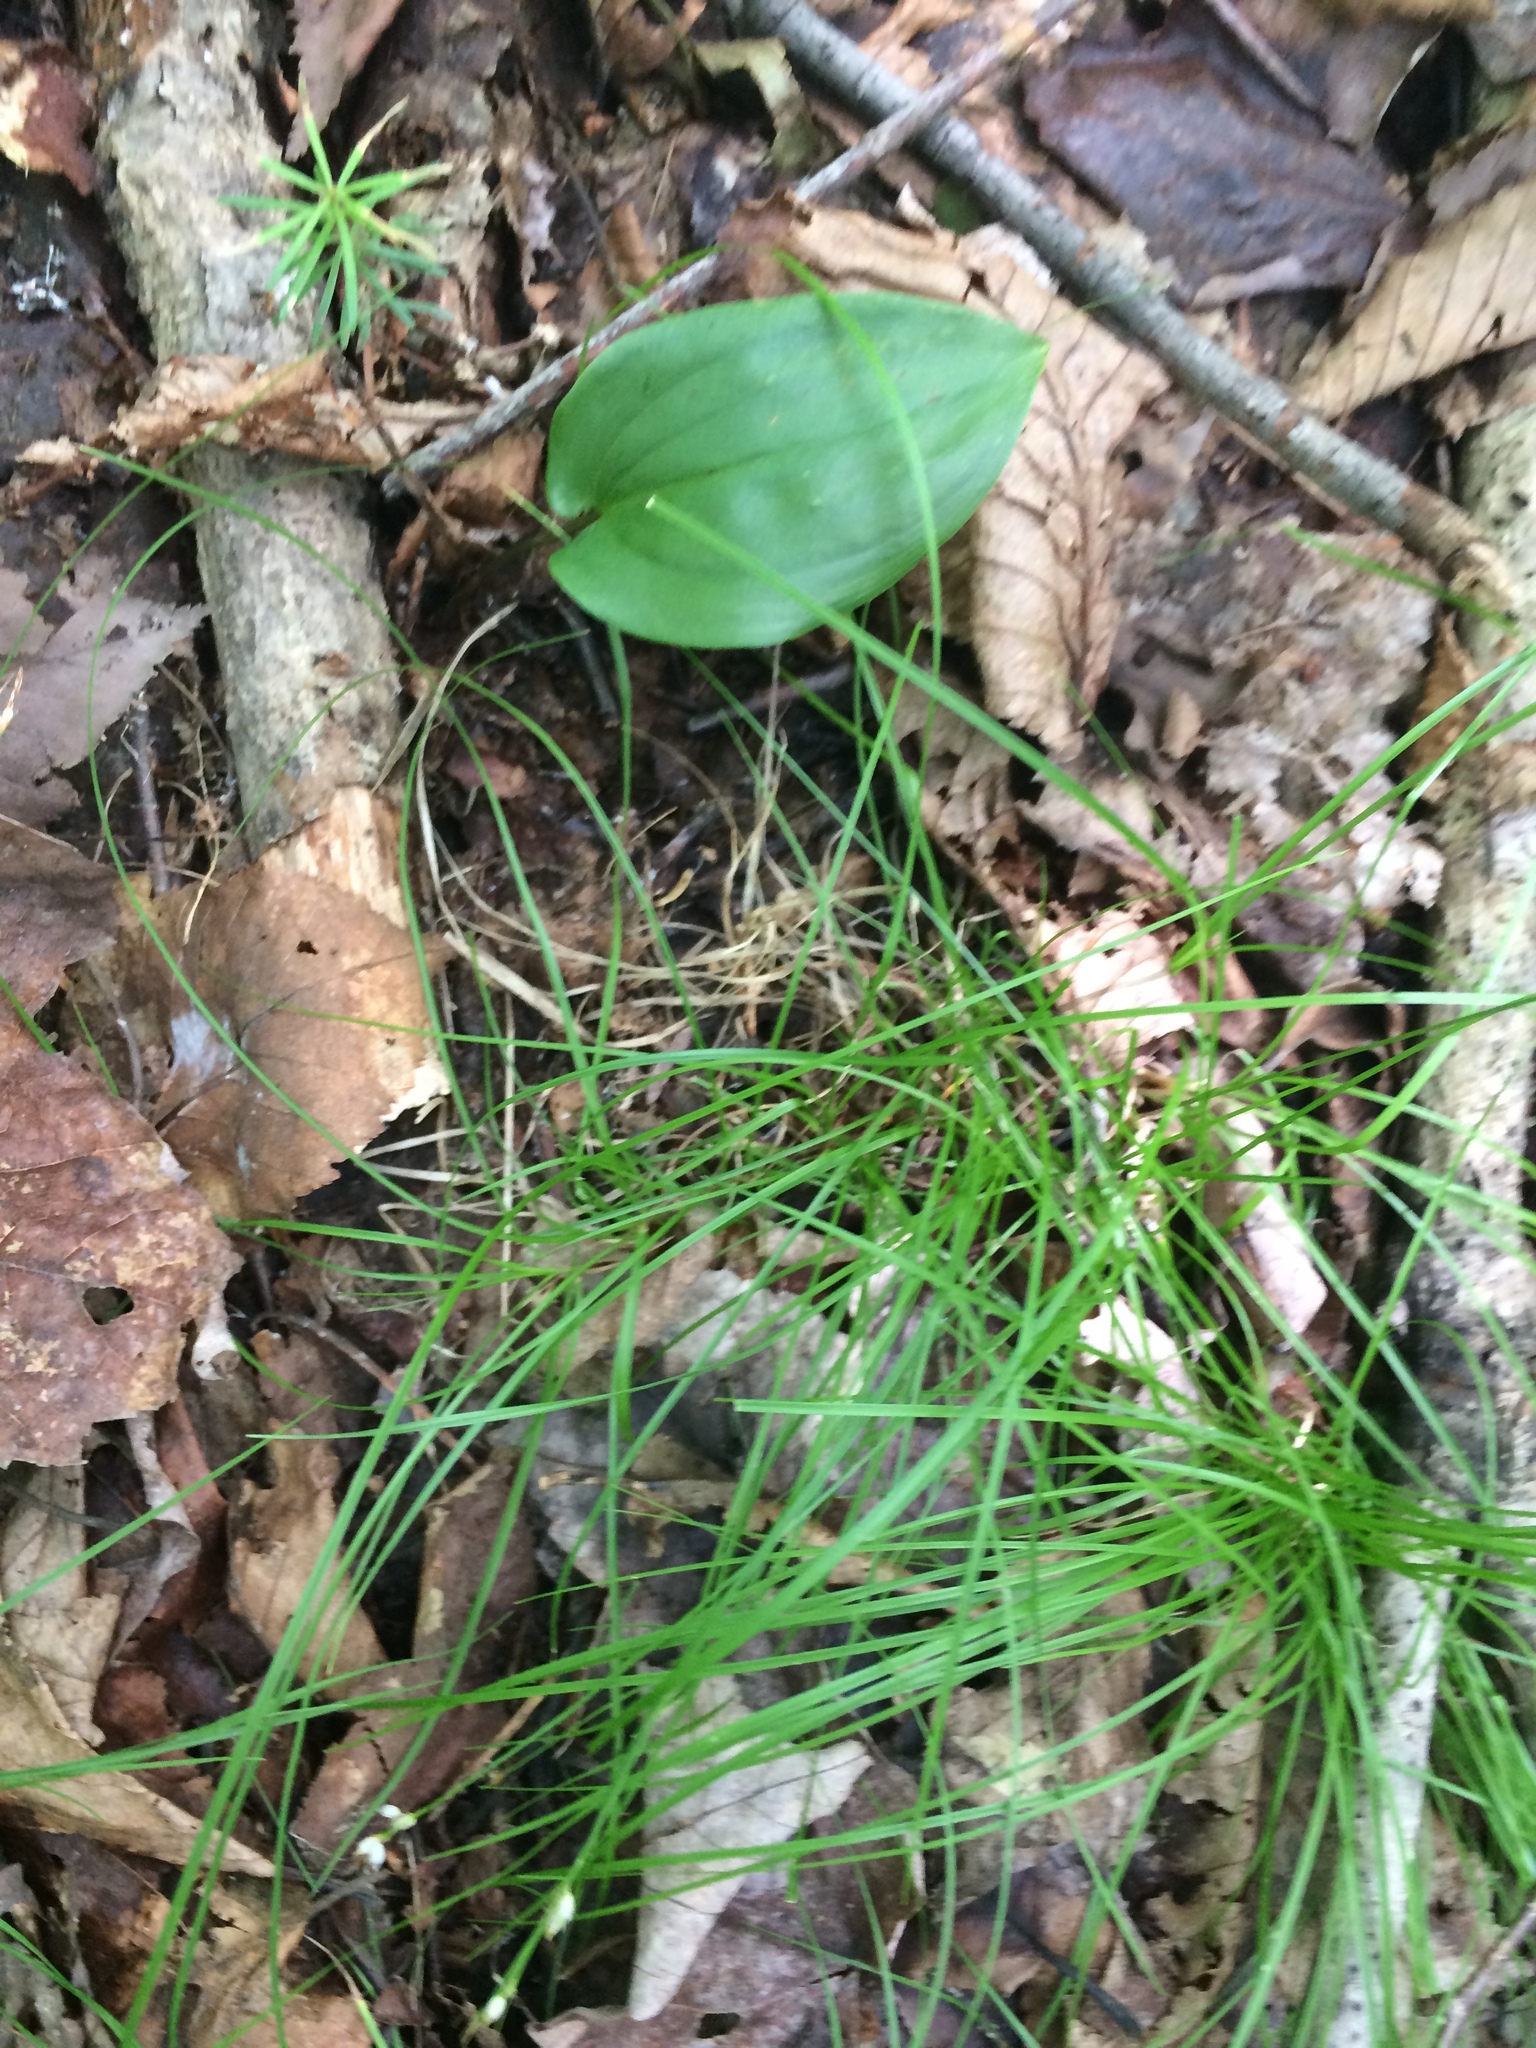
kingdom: Plantae
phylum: Tracheophyta
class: Liliopsida
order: Asparagales
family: Asparagaceae
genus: Maianthemum
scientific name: Maianthemum canadense
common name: False lily-of-the-valley
